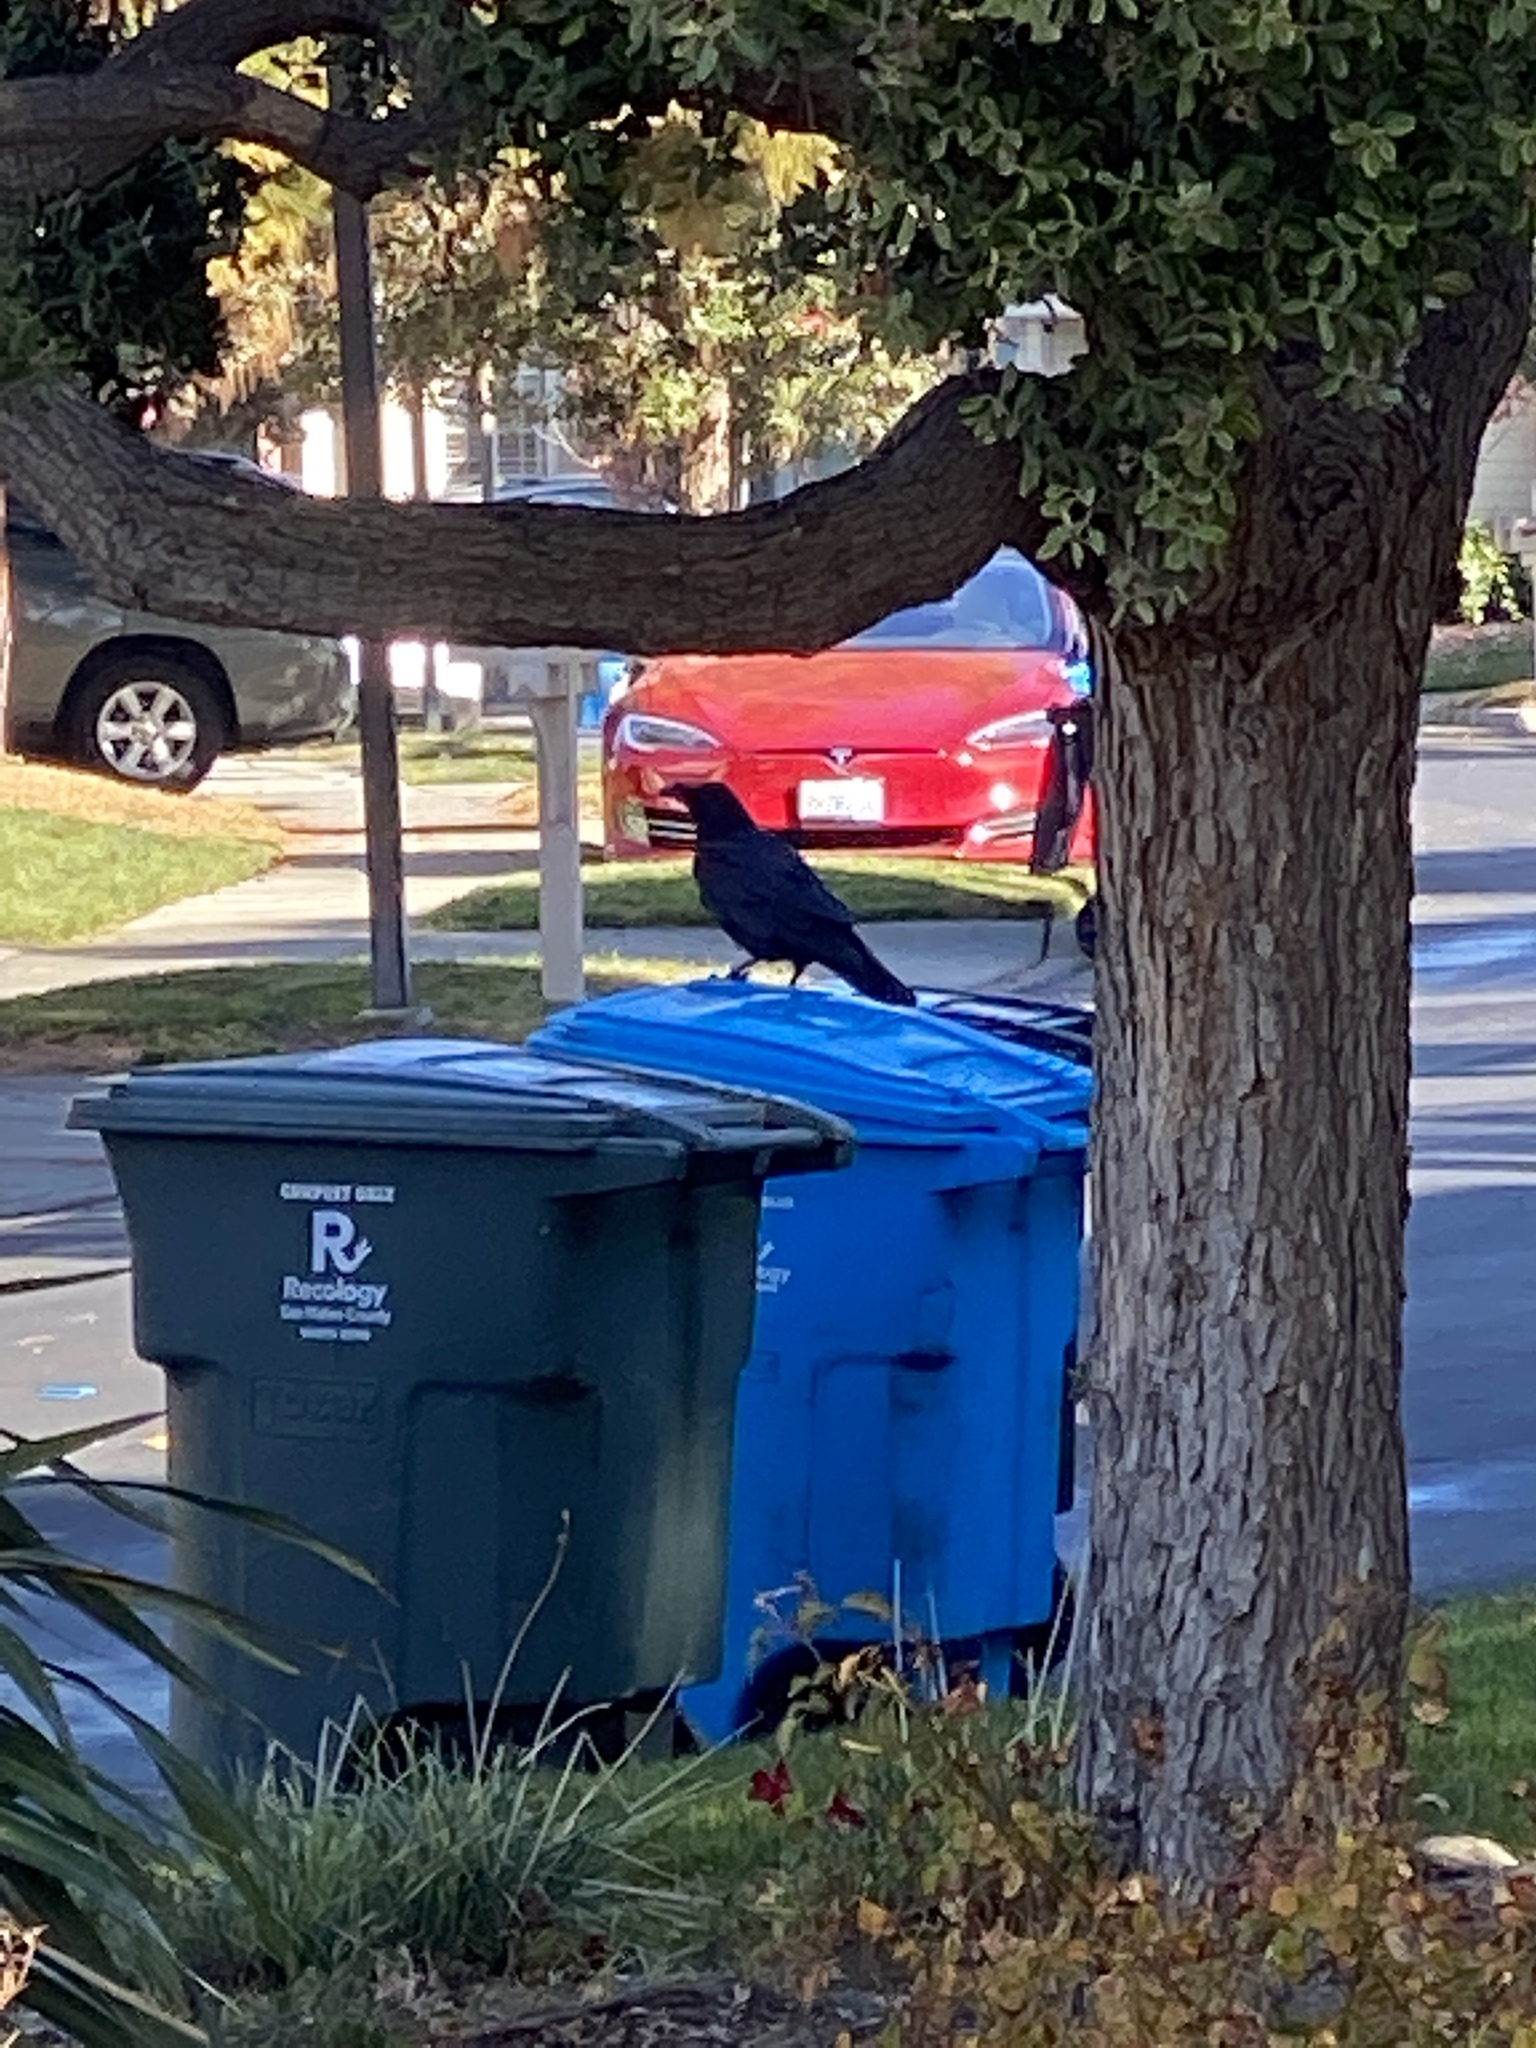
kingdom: Animalia
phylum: Chordata
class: Aves
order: Passeriformes
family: Corvidae
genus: Corvus
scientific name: Corvus corax
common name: Common raven
